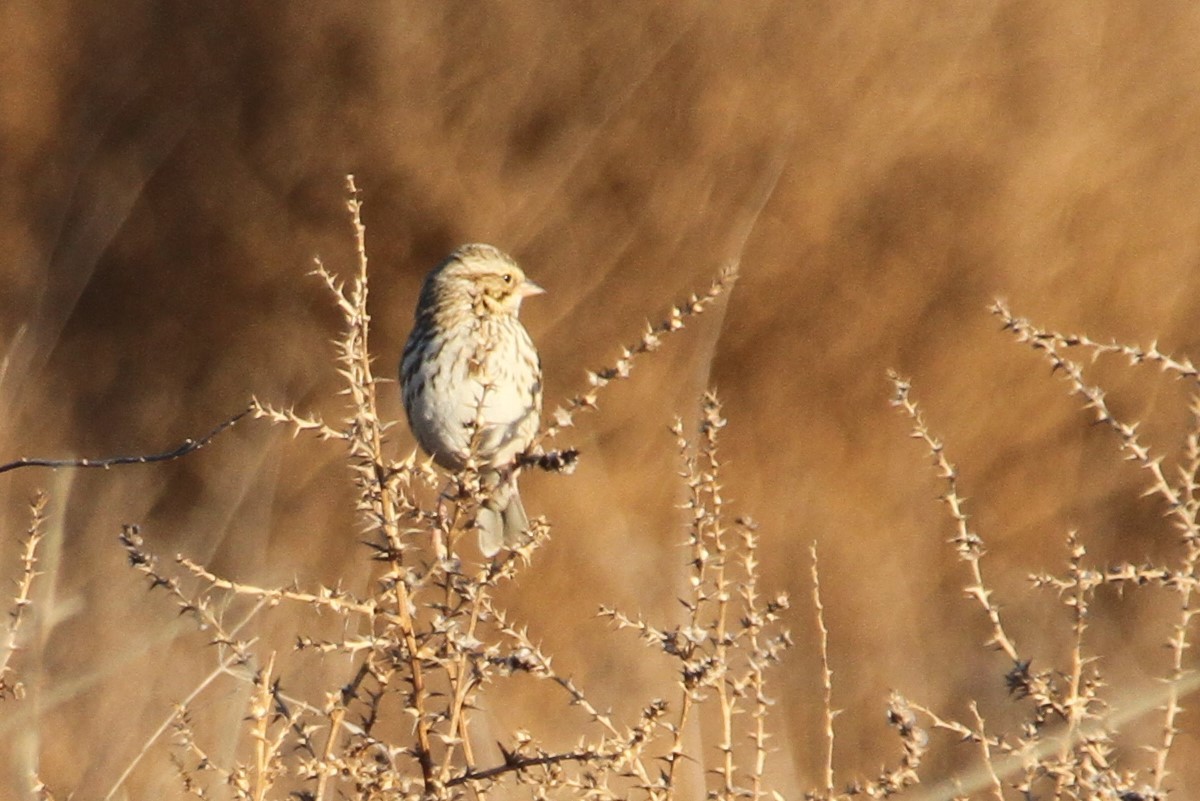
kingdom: Animalia
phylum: Chordata
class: Aves
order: Passeriformes
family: Passerellidae
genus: Passerculus
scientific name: Passerculus sandwichensis
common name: Savannah sparrow
